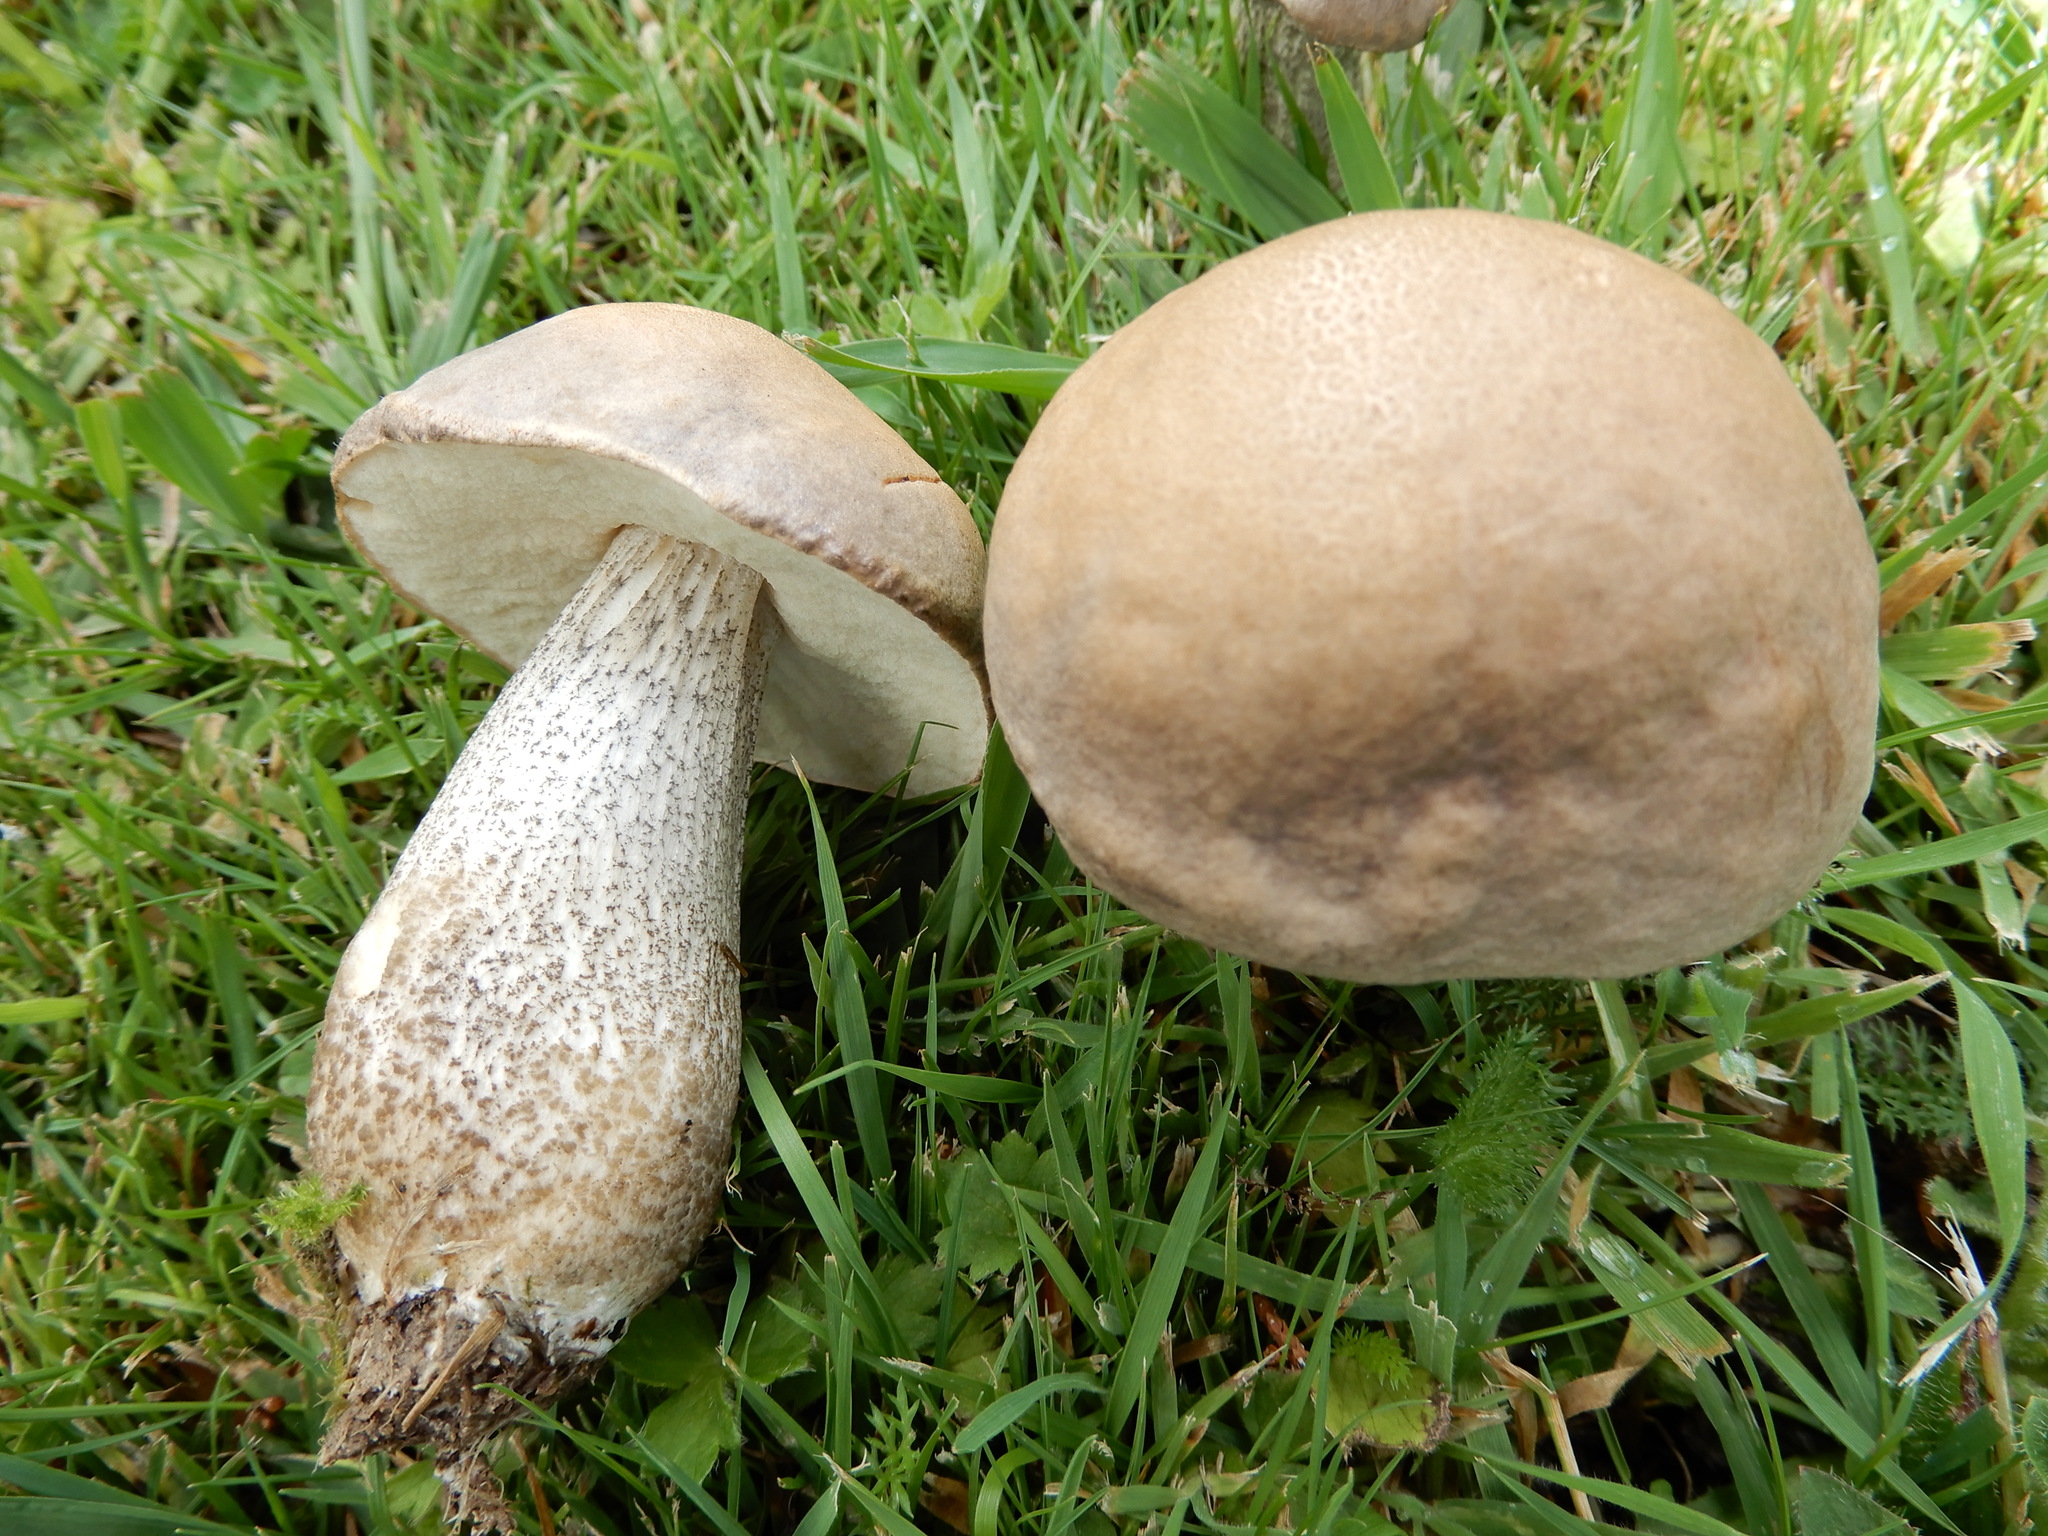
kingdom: Fungi
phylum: Basidiomycota
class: Agaricomycetes
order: Boletales
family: Boletaceae
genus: Leccinum
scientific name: Leccinum scabrum
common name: Blushing bolete
